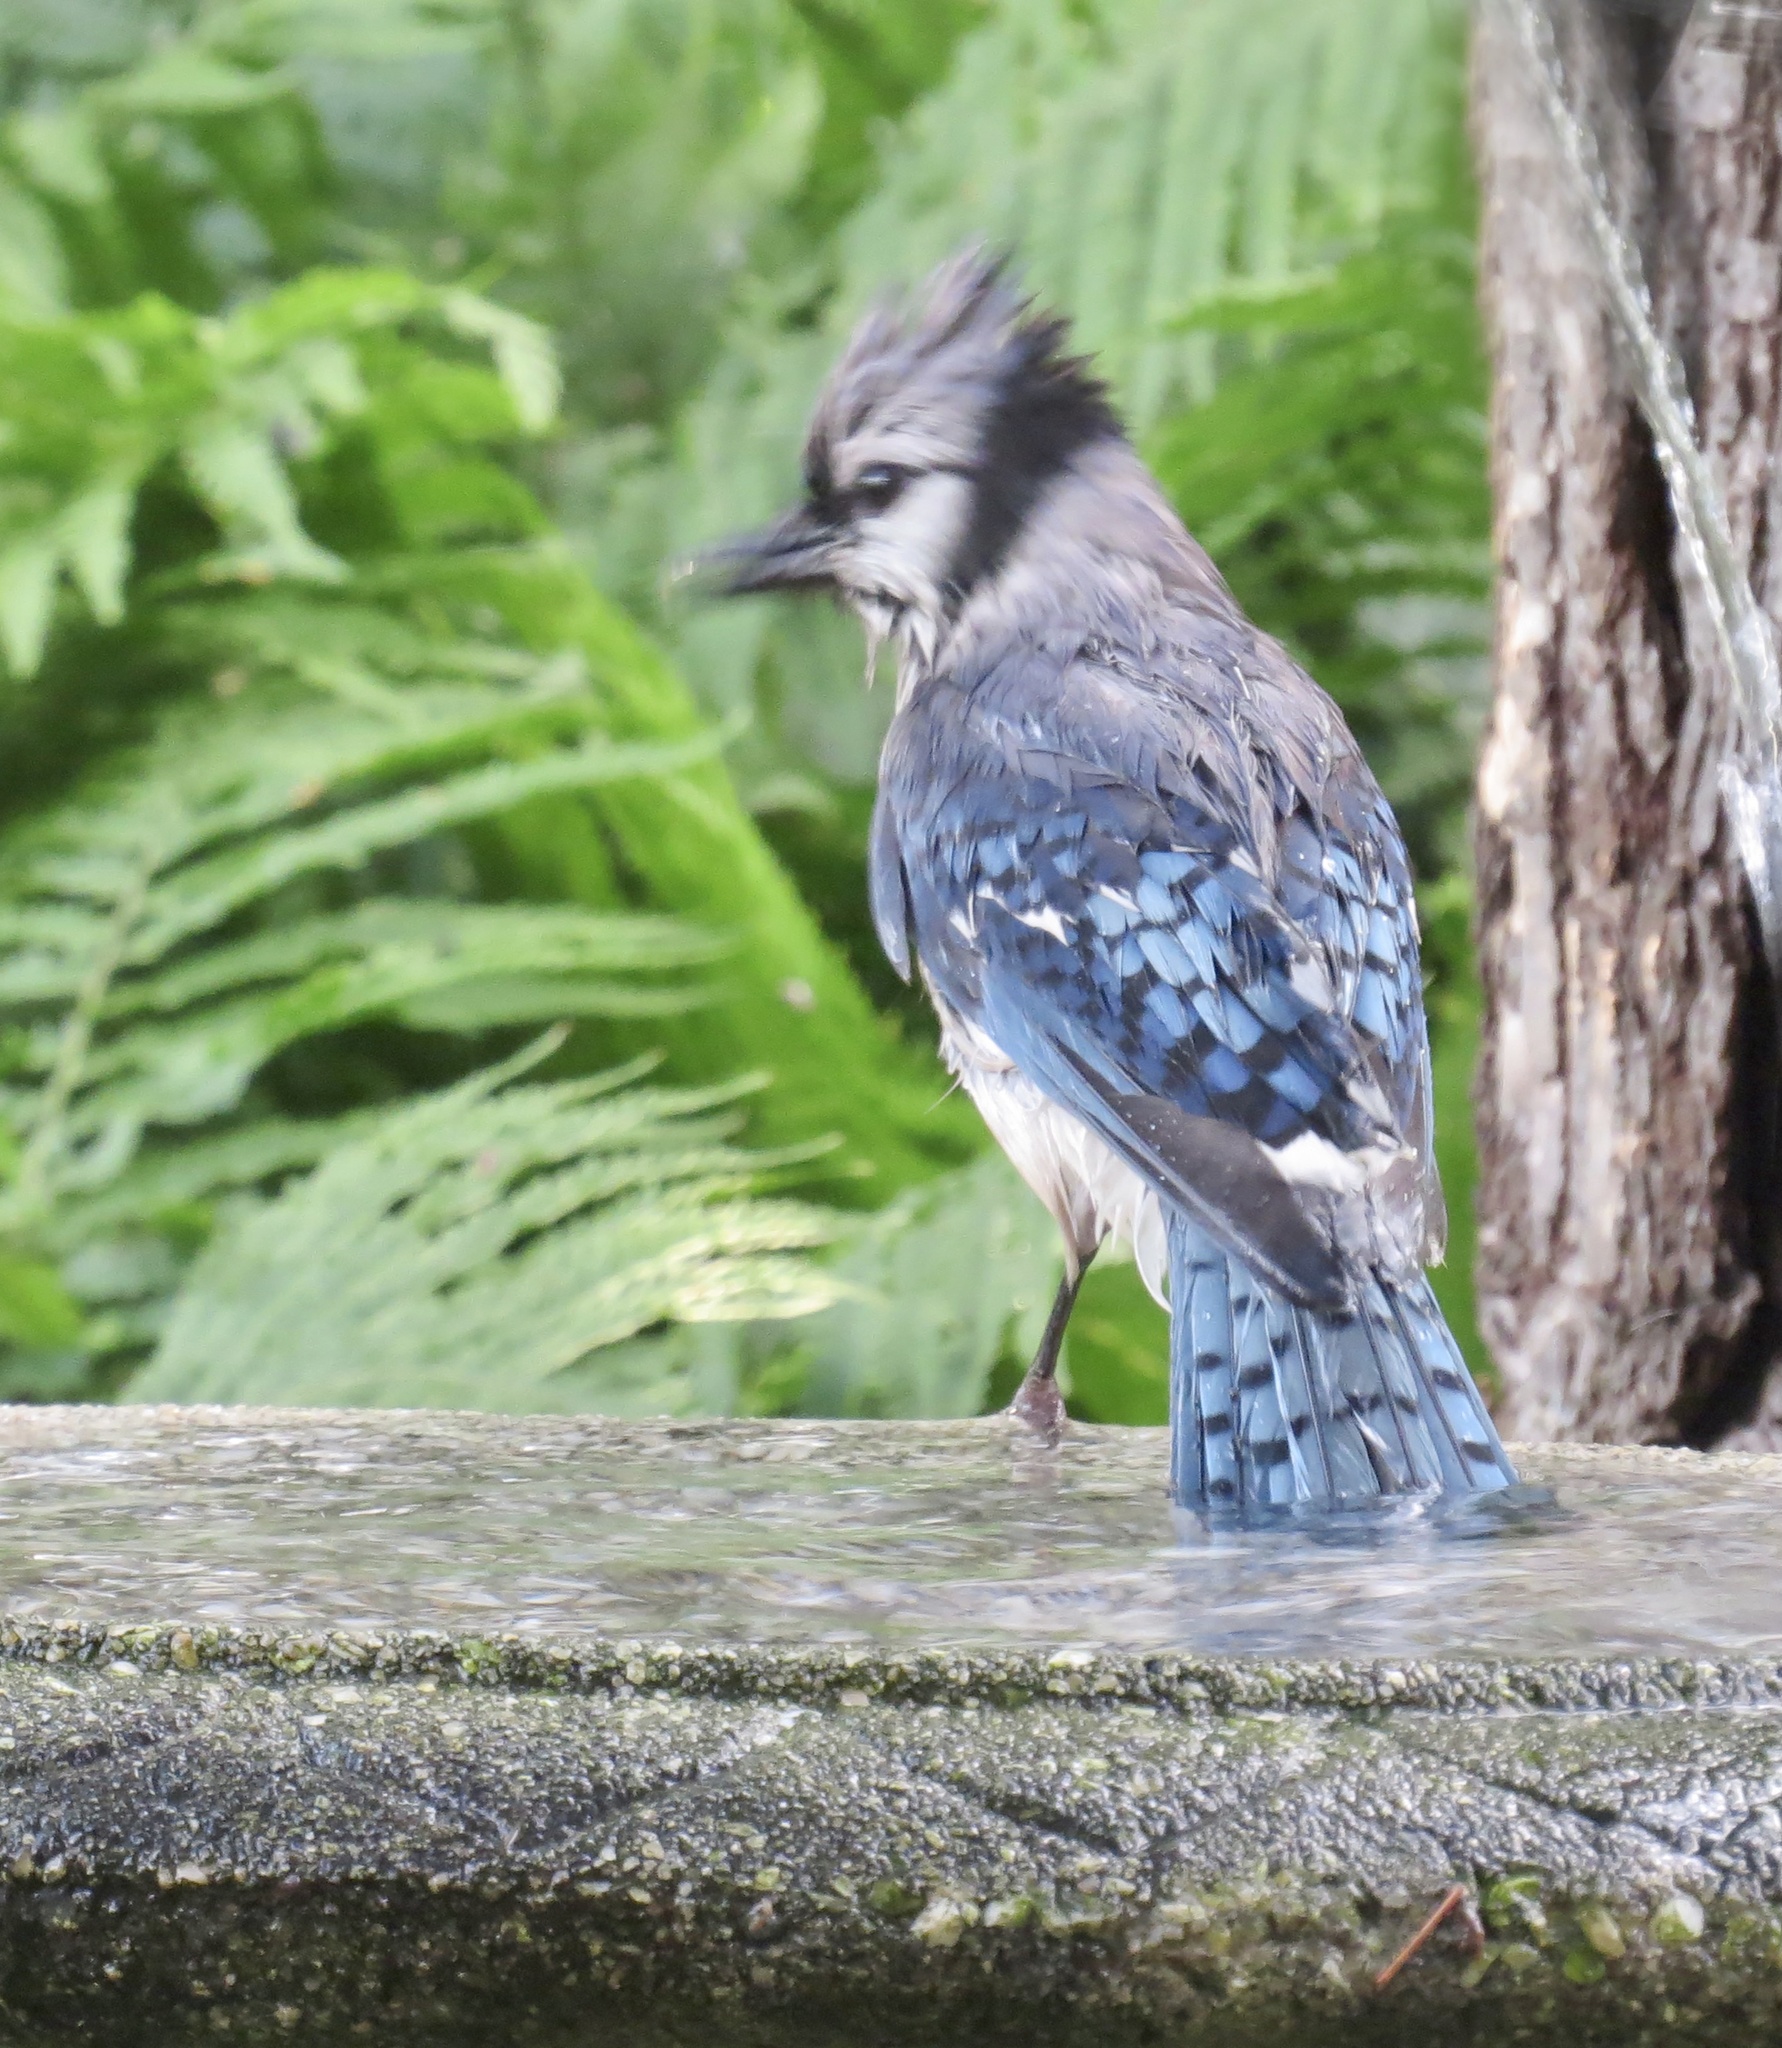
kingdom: Animalia
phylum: Chordata
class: Aves
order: Passeriformes
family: Corvidae
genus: Cyanocitta
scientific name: Cyanocitta cristata
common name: Blue jay
